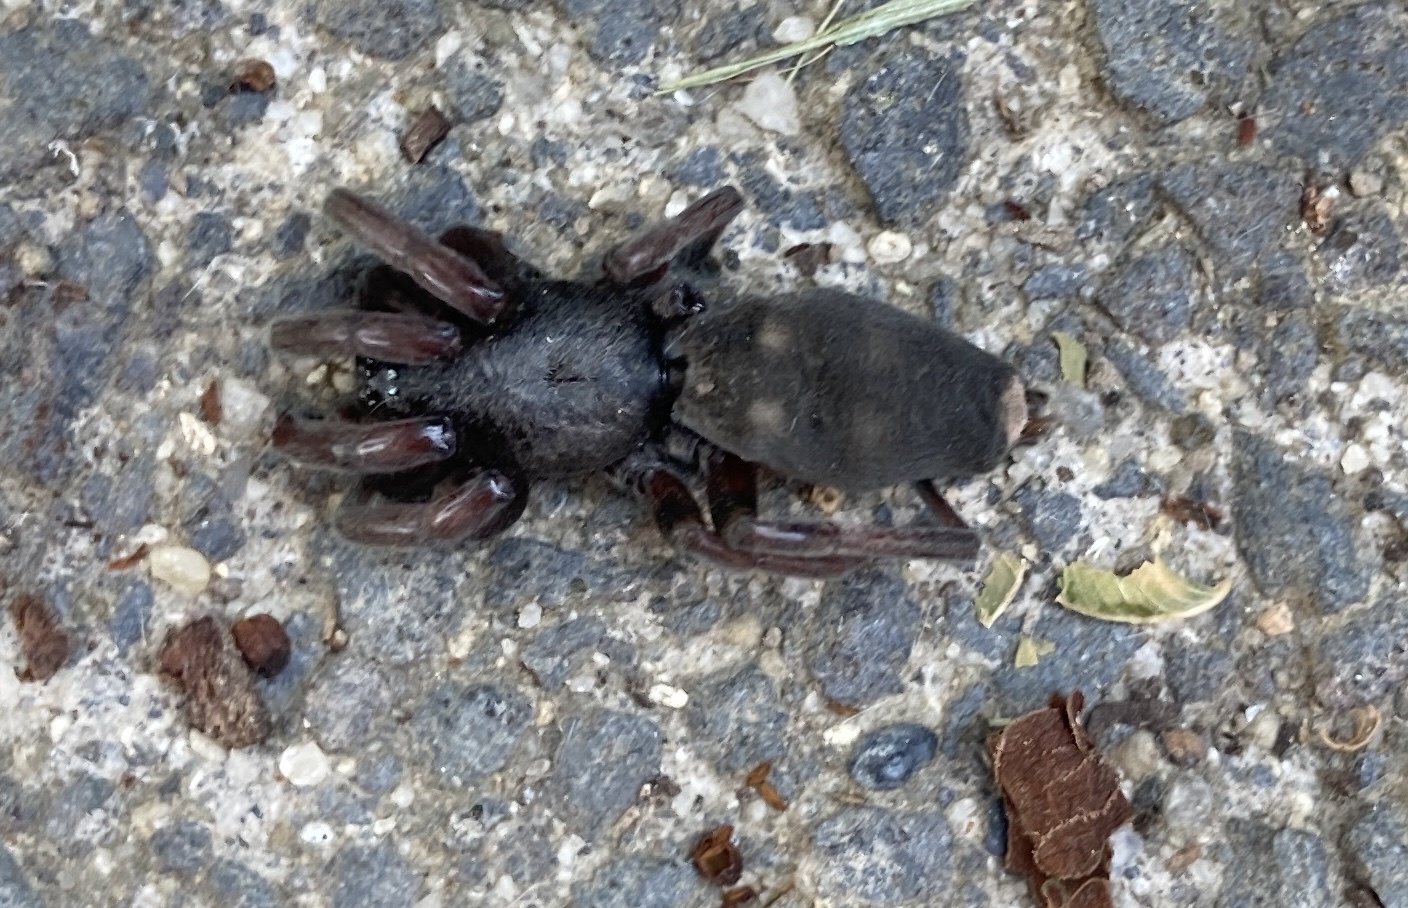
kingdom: Animalia
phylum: Arthropoda
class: Arachnida
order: Araneae
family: Lamponidae
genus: Lampona
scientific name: Lampona murina
